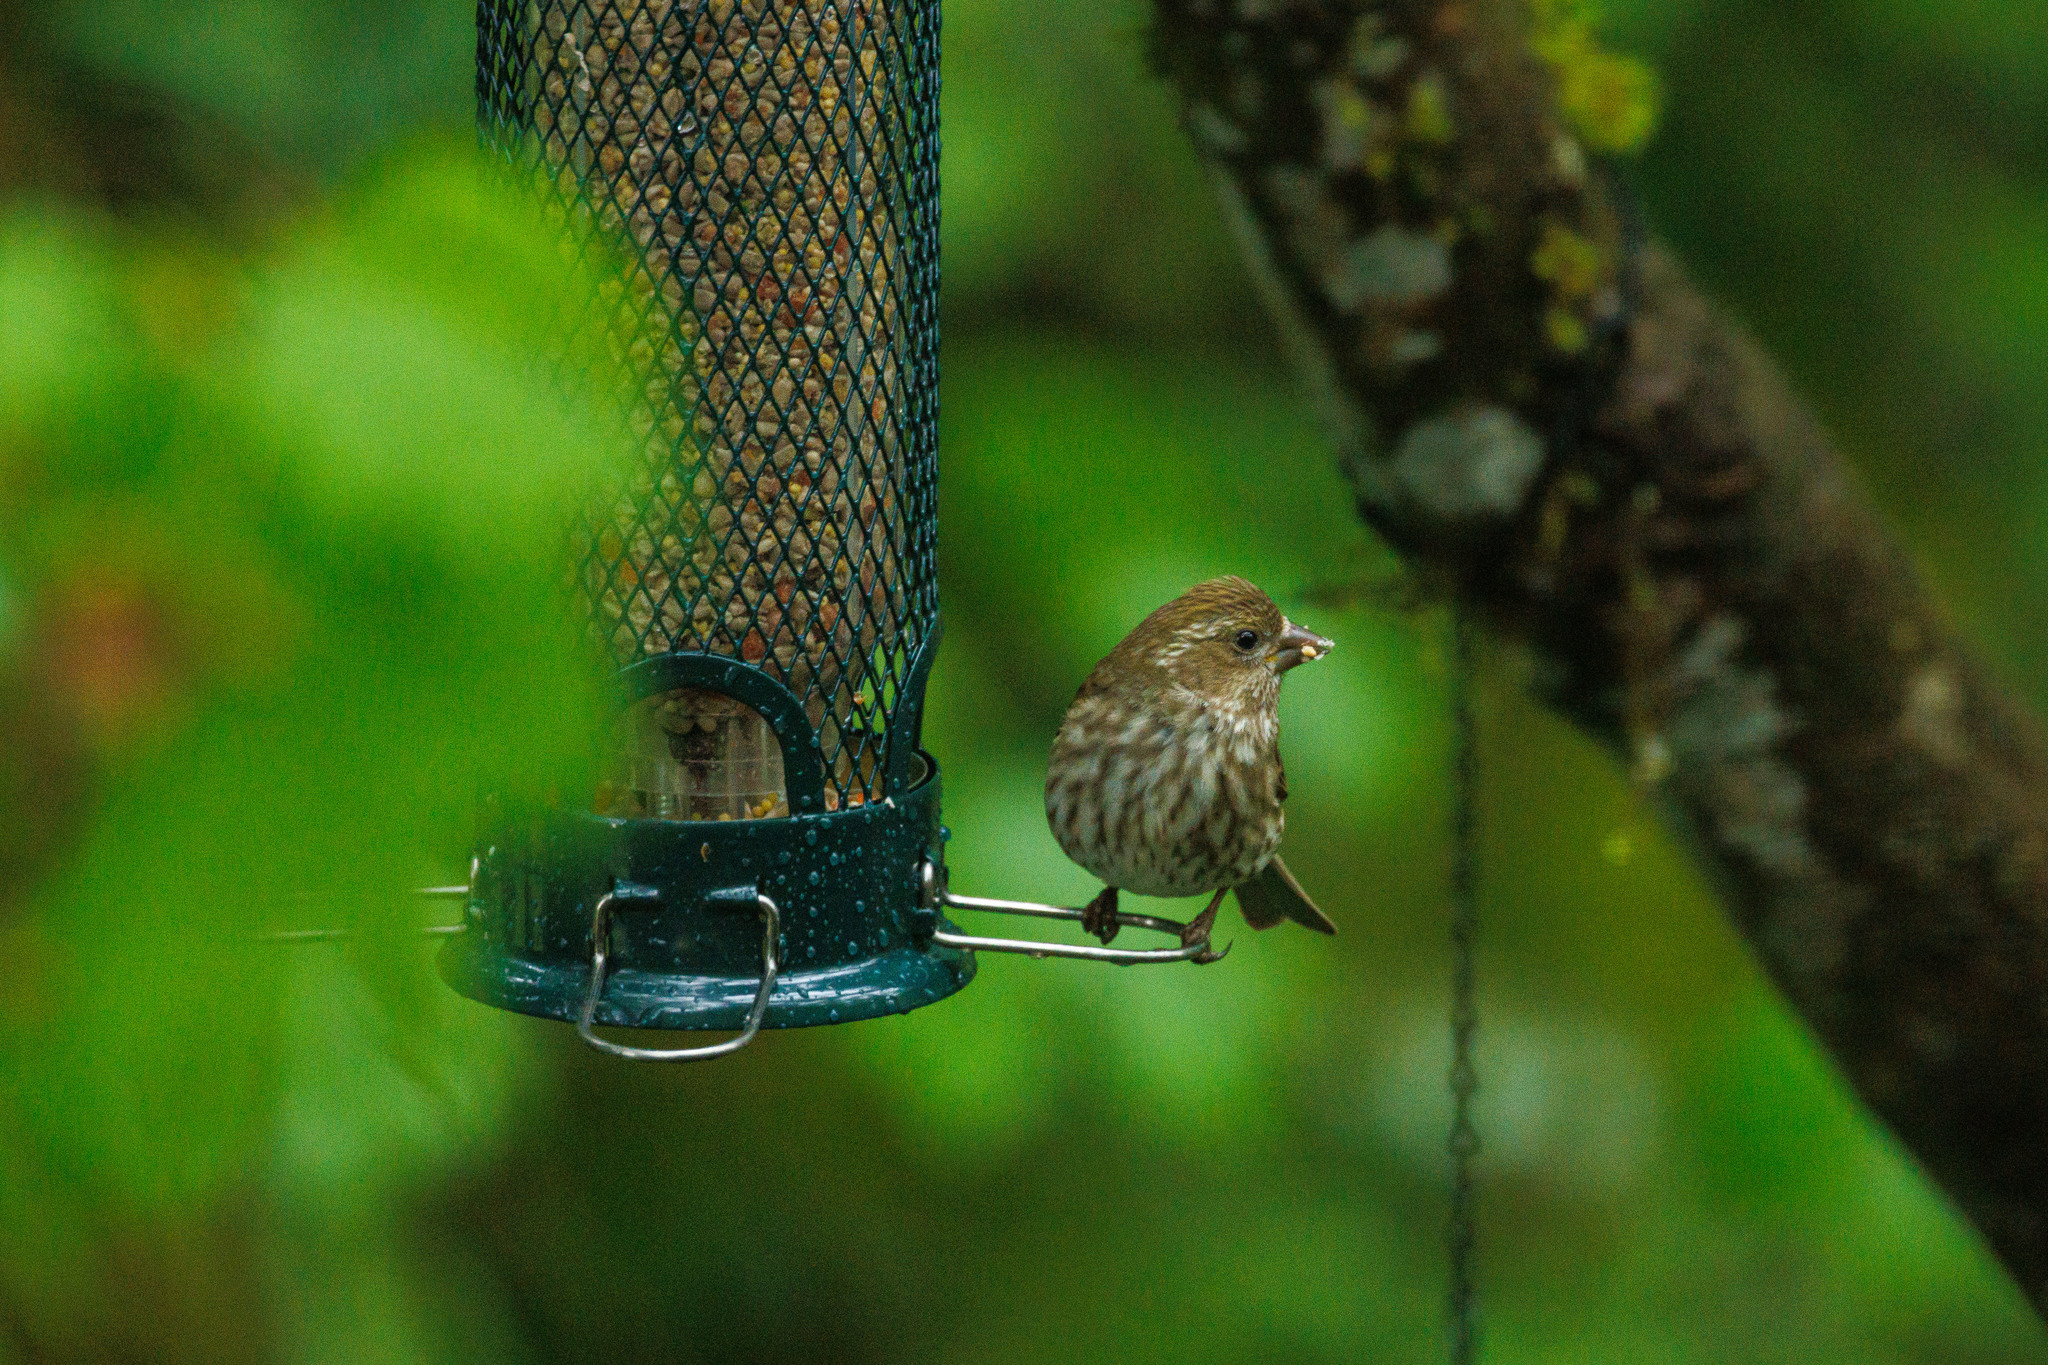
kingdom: Animalia
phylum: Chordata
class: Aves
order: Passeriformes
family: Fringillidae
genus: Haemorhous
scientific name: Haemorhous purpureus
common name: Purple finch
